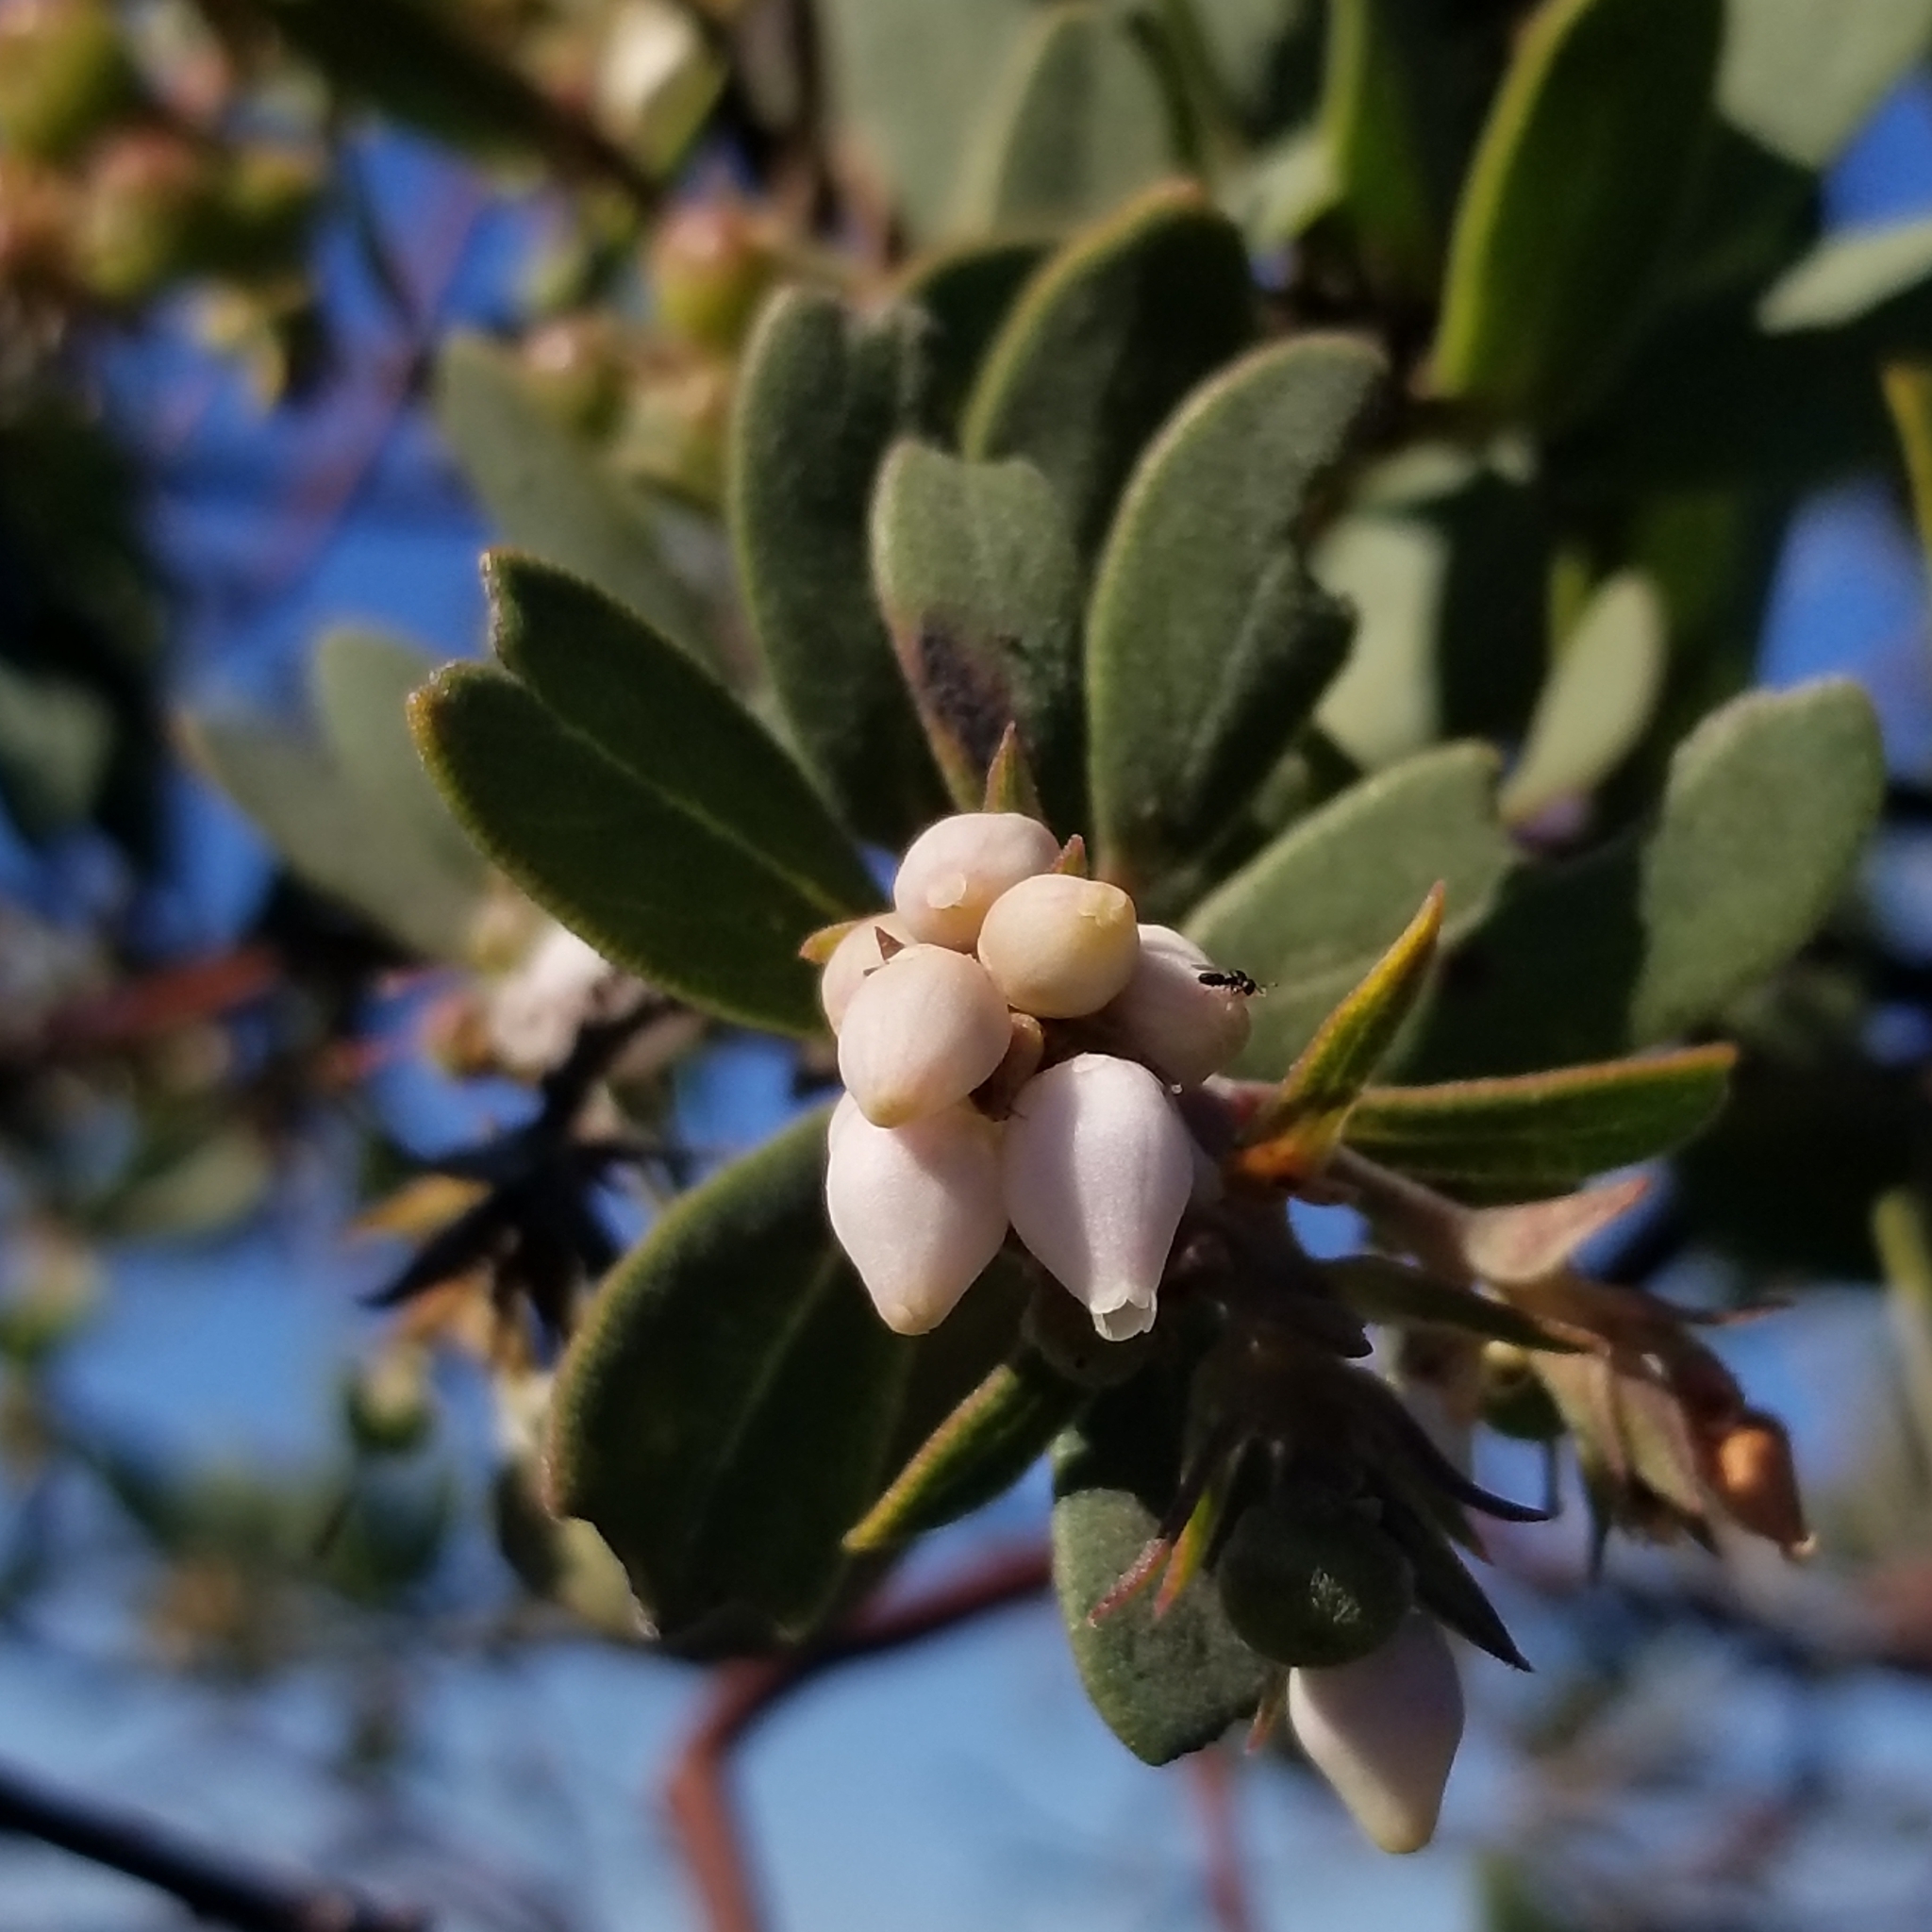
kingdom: Plantae
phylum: Tracheophyta
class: Magnoliopsida
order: Ericales
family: Ericaceae
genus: Arctostaphylos
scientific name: Arctostaphylos glandulosa
